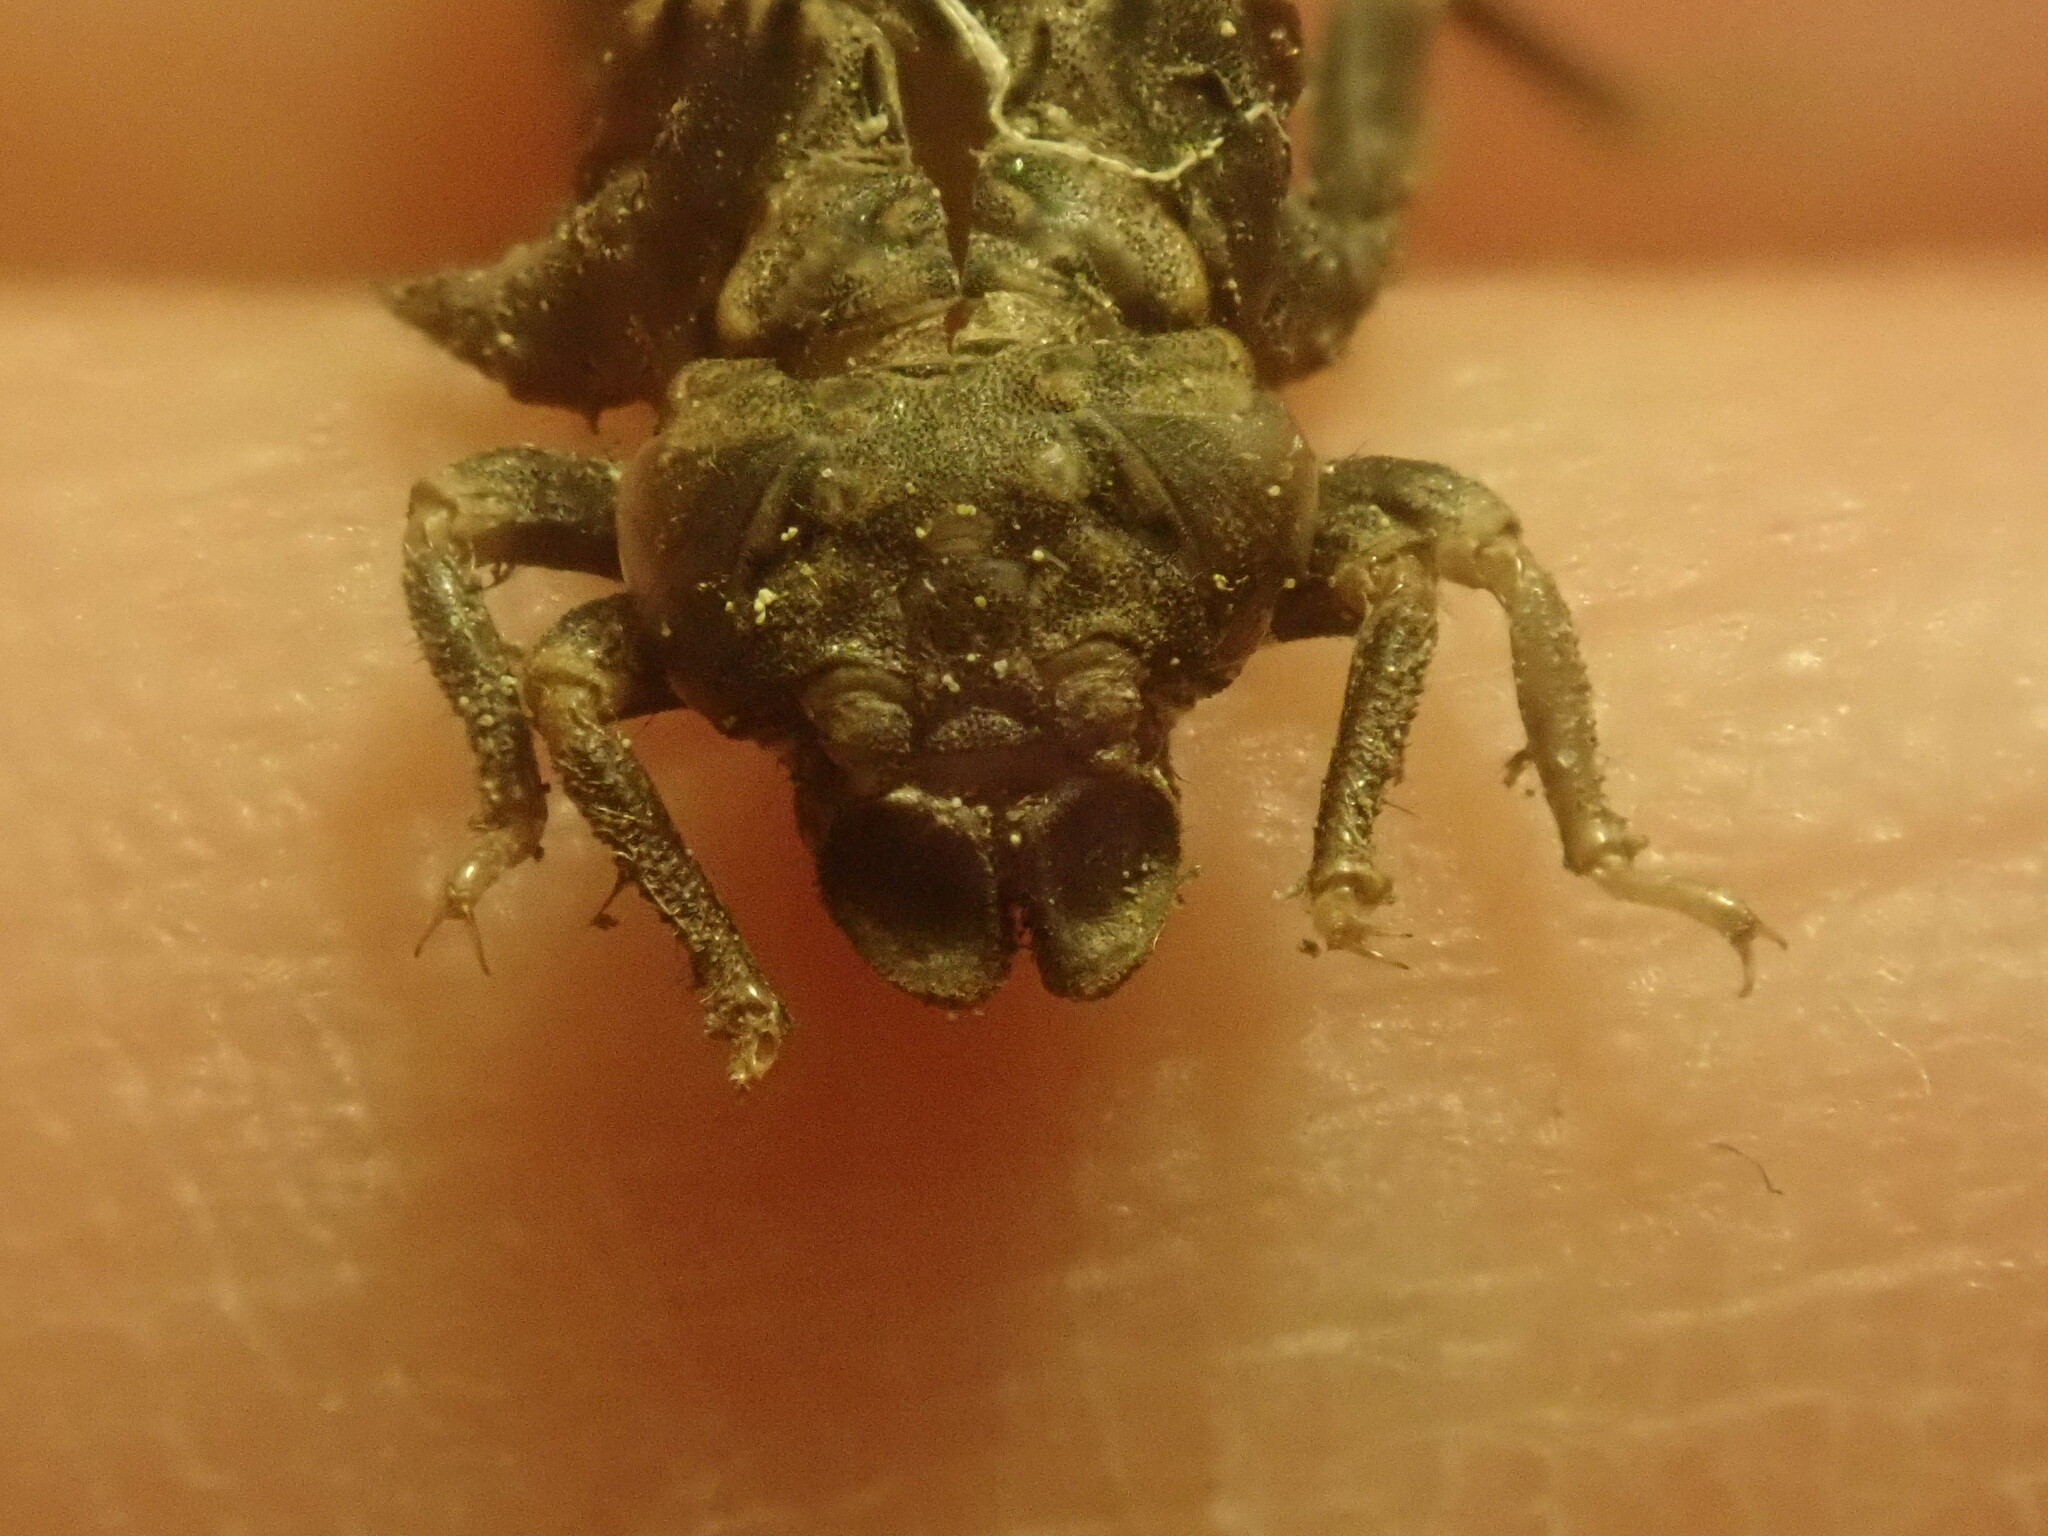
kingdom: Animalia
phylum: Arthropoda
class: Insecta
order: Odonata
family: Gomphidae
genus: Stylogomphus
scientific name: Stylogomphus albistylus
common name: Eastern least clubtail
